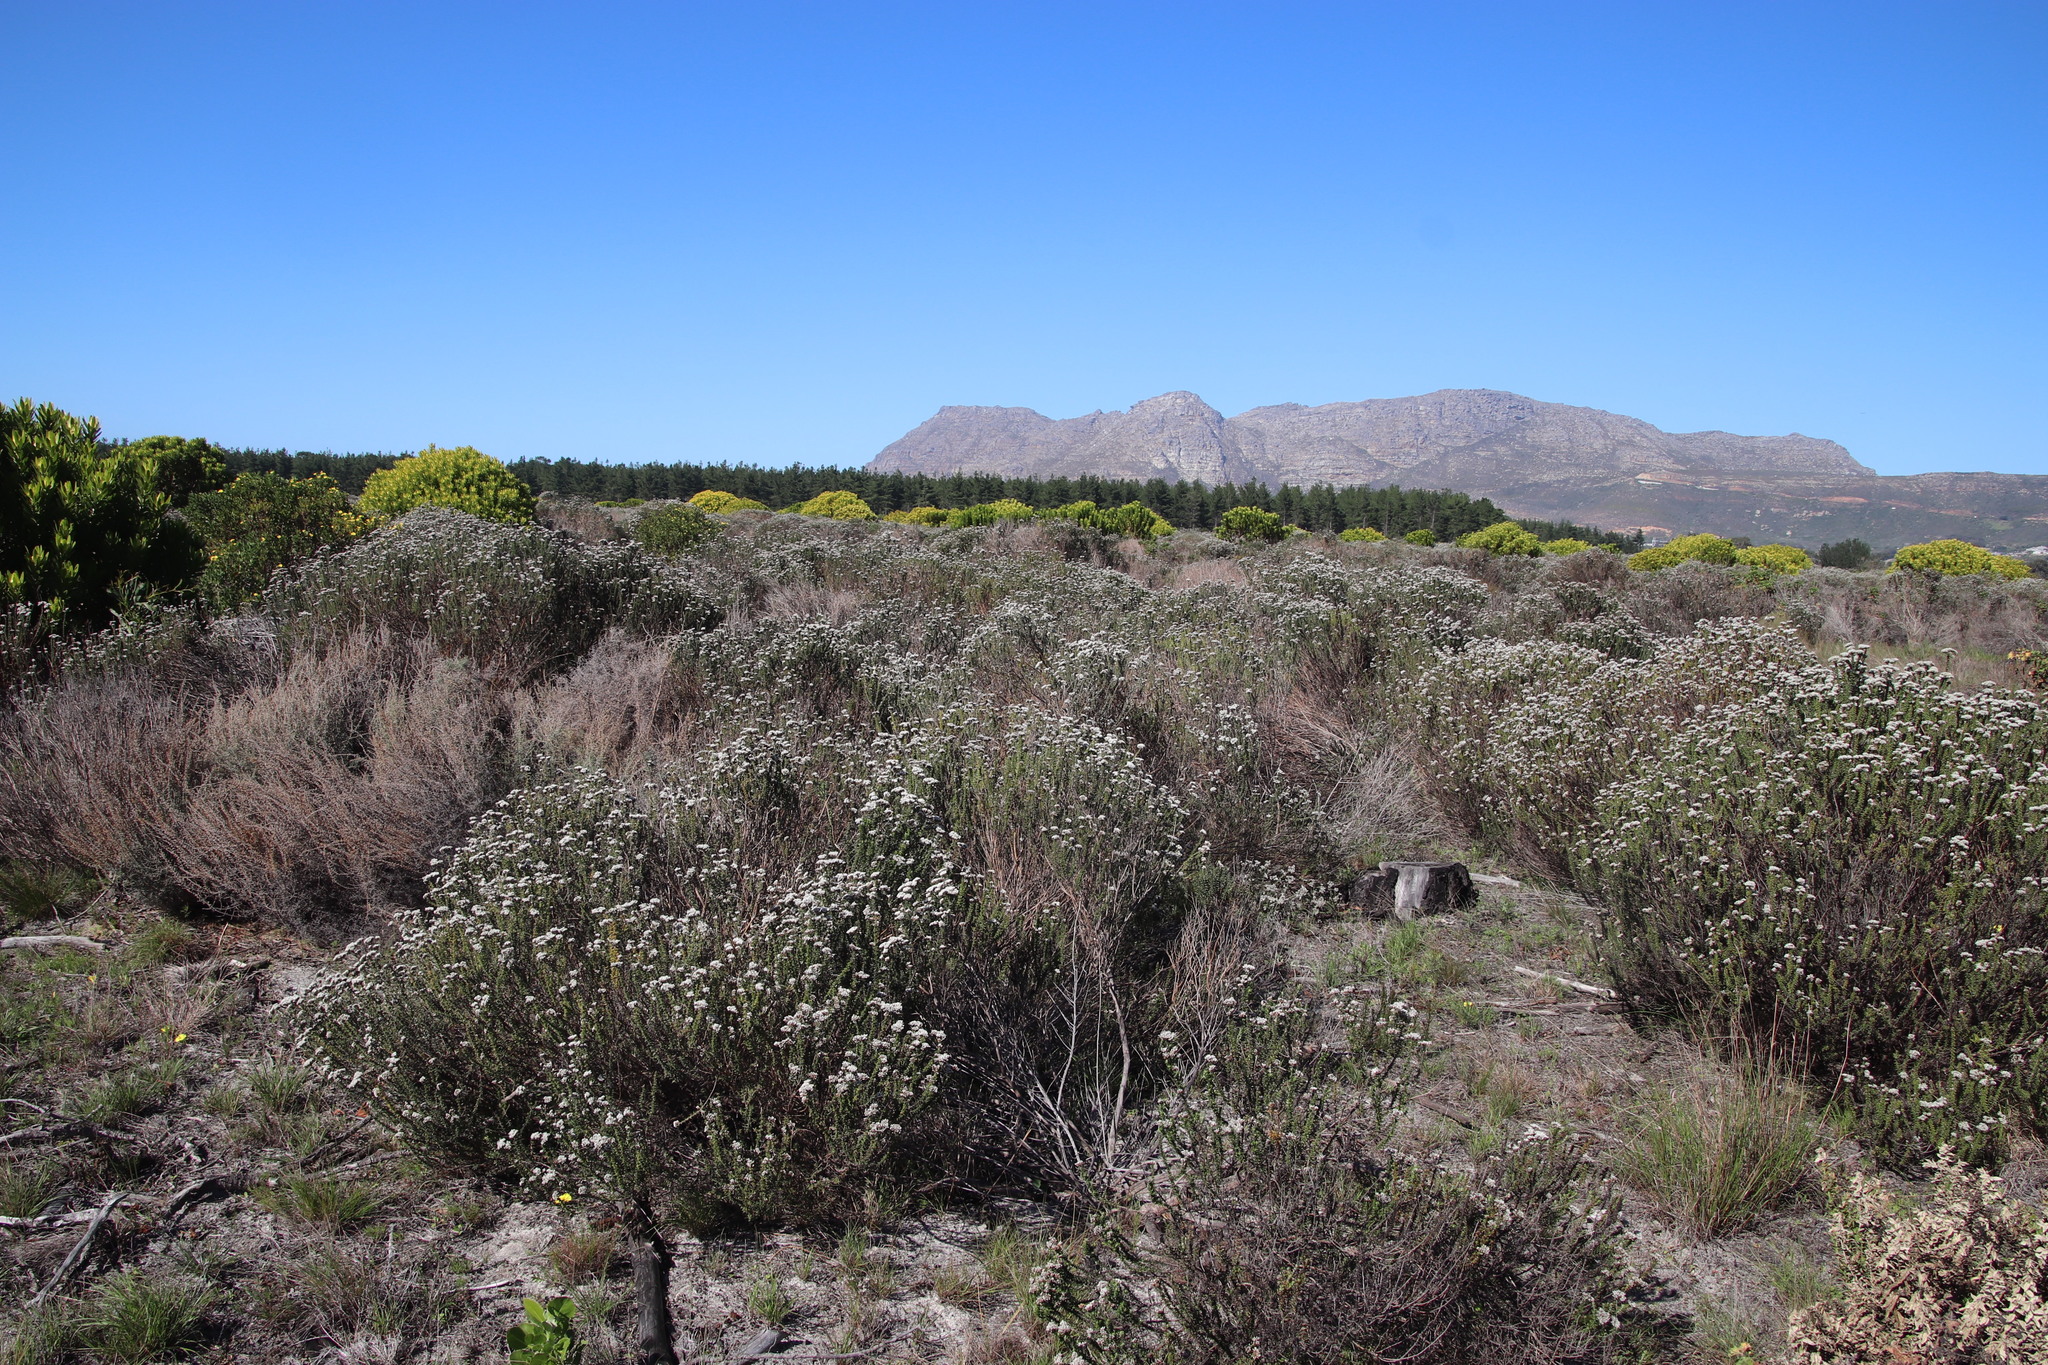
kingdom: Plantae
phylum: Tracheophyta
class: Magnoliopsida
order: Asterales
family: Asteraceae
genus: Metalasia
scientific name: Metalasia densa
